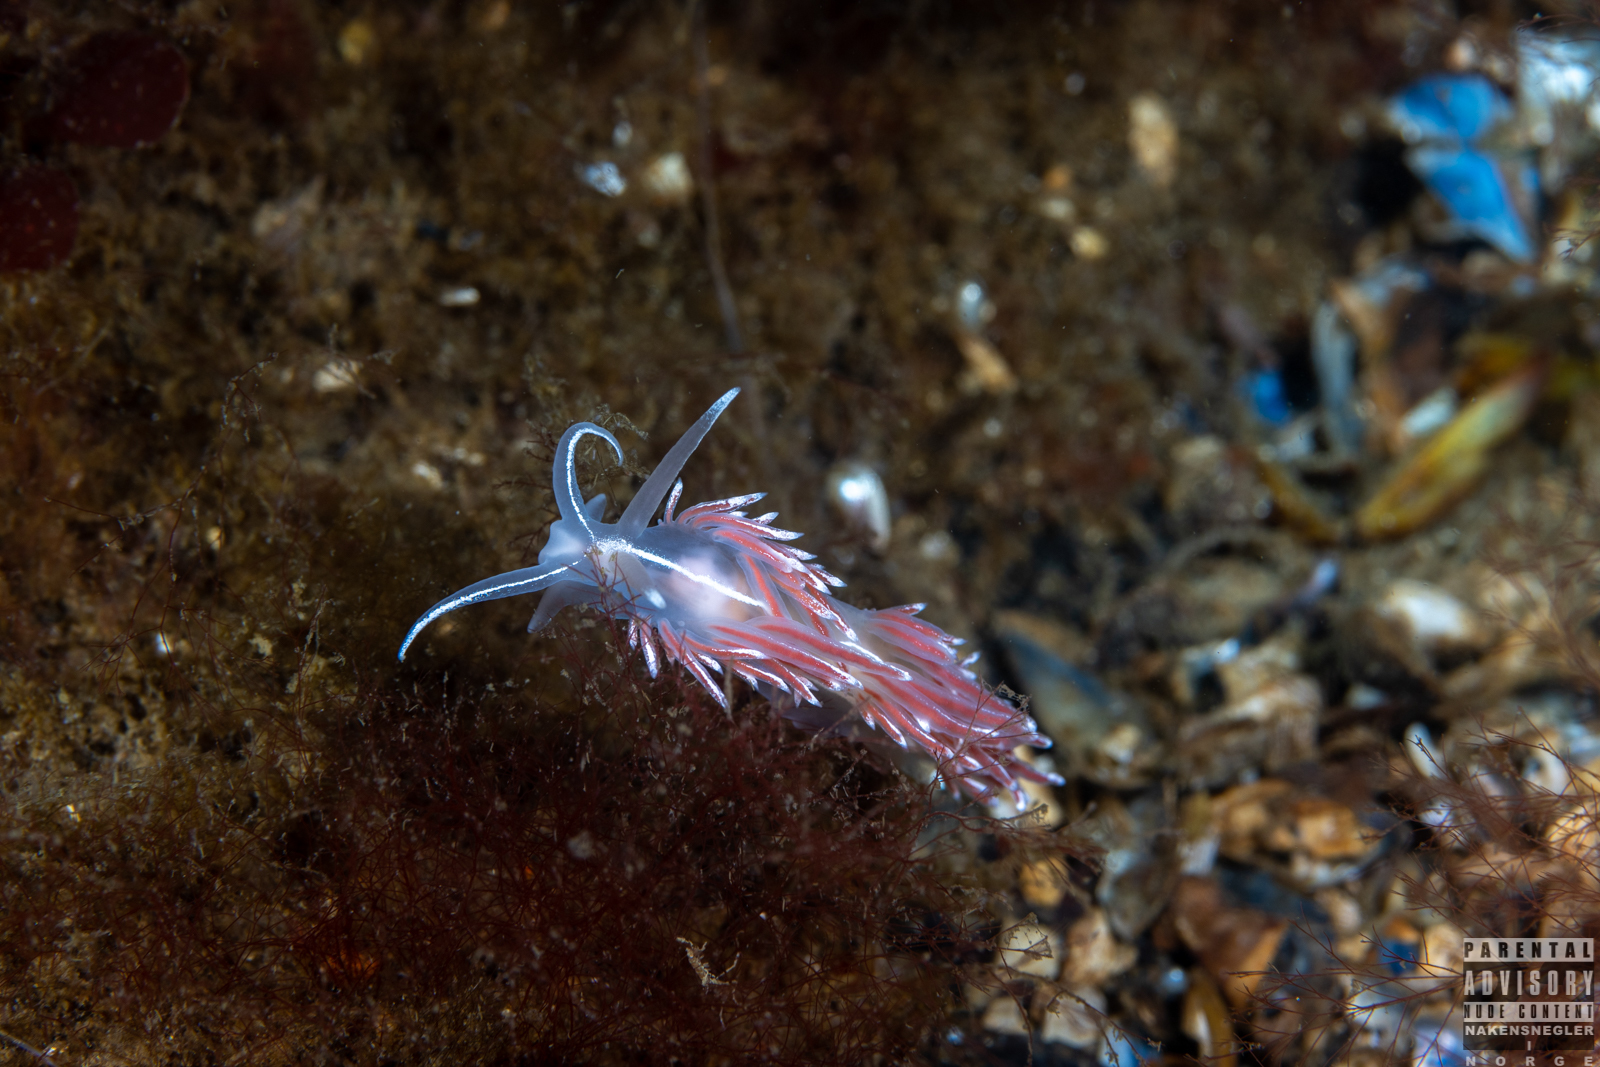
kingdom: Animalia
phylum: Mollusca
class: Gastropoda
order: Nudibranchia
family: Coryphellidae
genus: Coryphella
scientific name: Coryphella lineata
